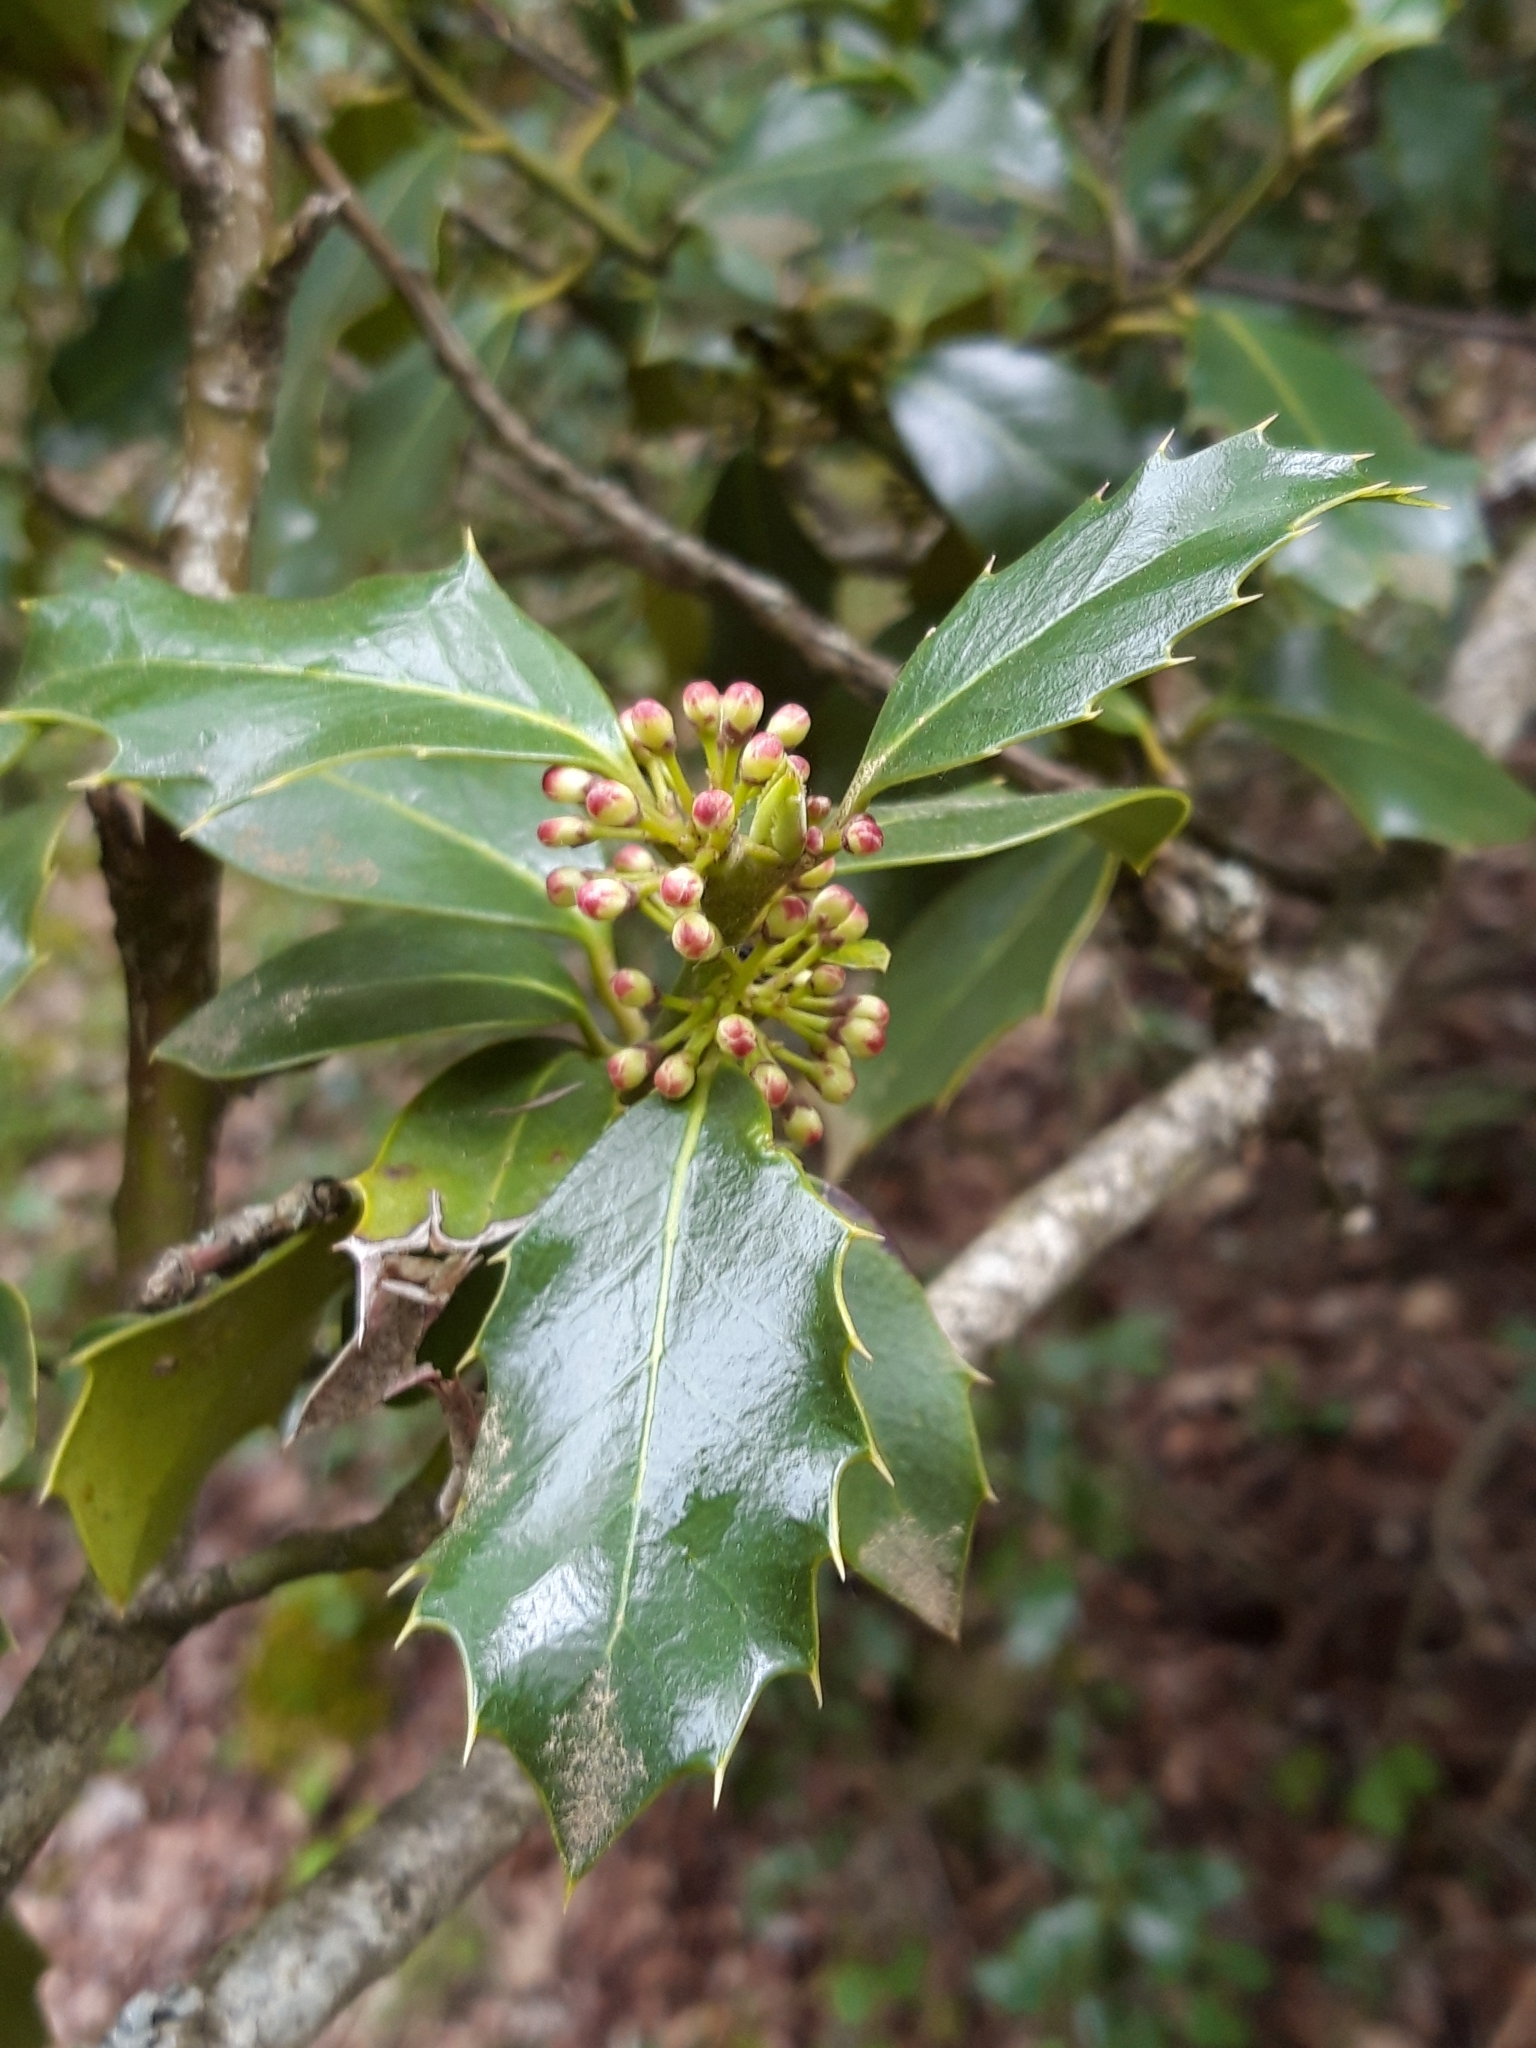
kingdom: Plantae
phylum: Tracheophyta
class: Magnoliopsida
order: Aquifoliales
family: Aquifoliaceae
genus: Ilex
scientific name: Ilex aquifolium
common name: English holly
